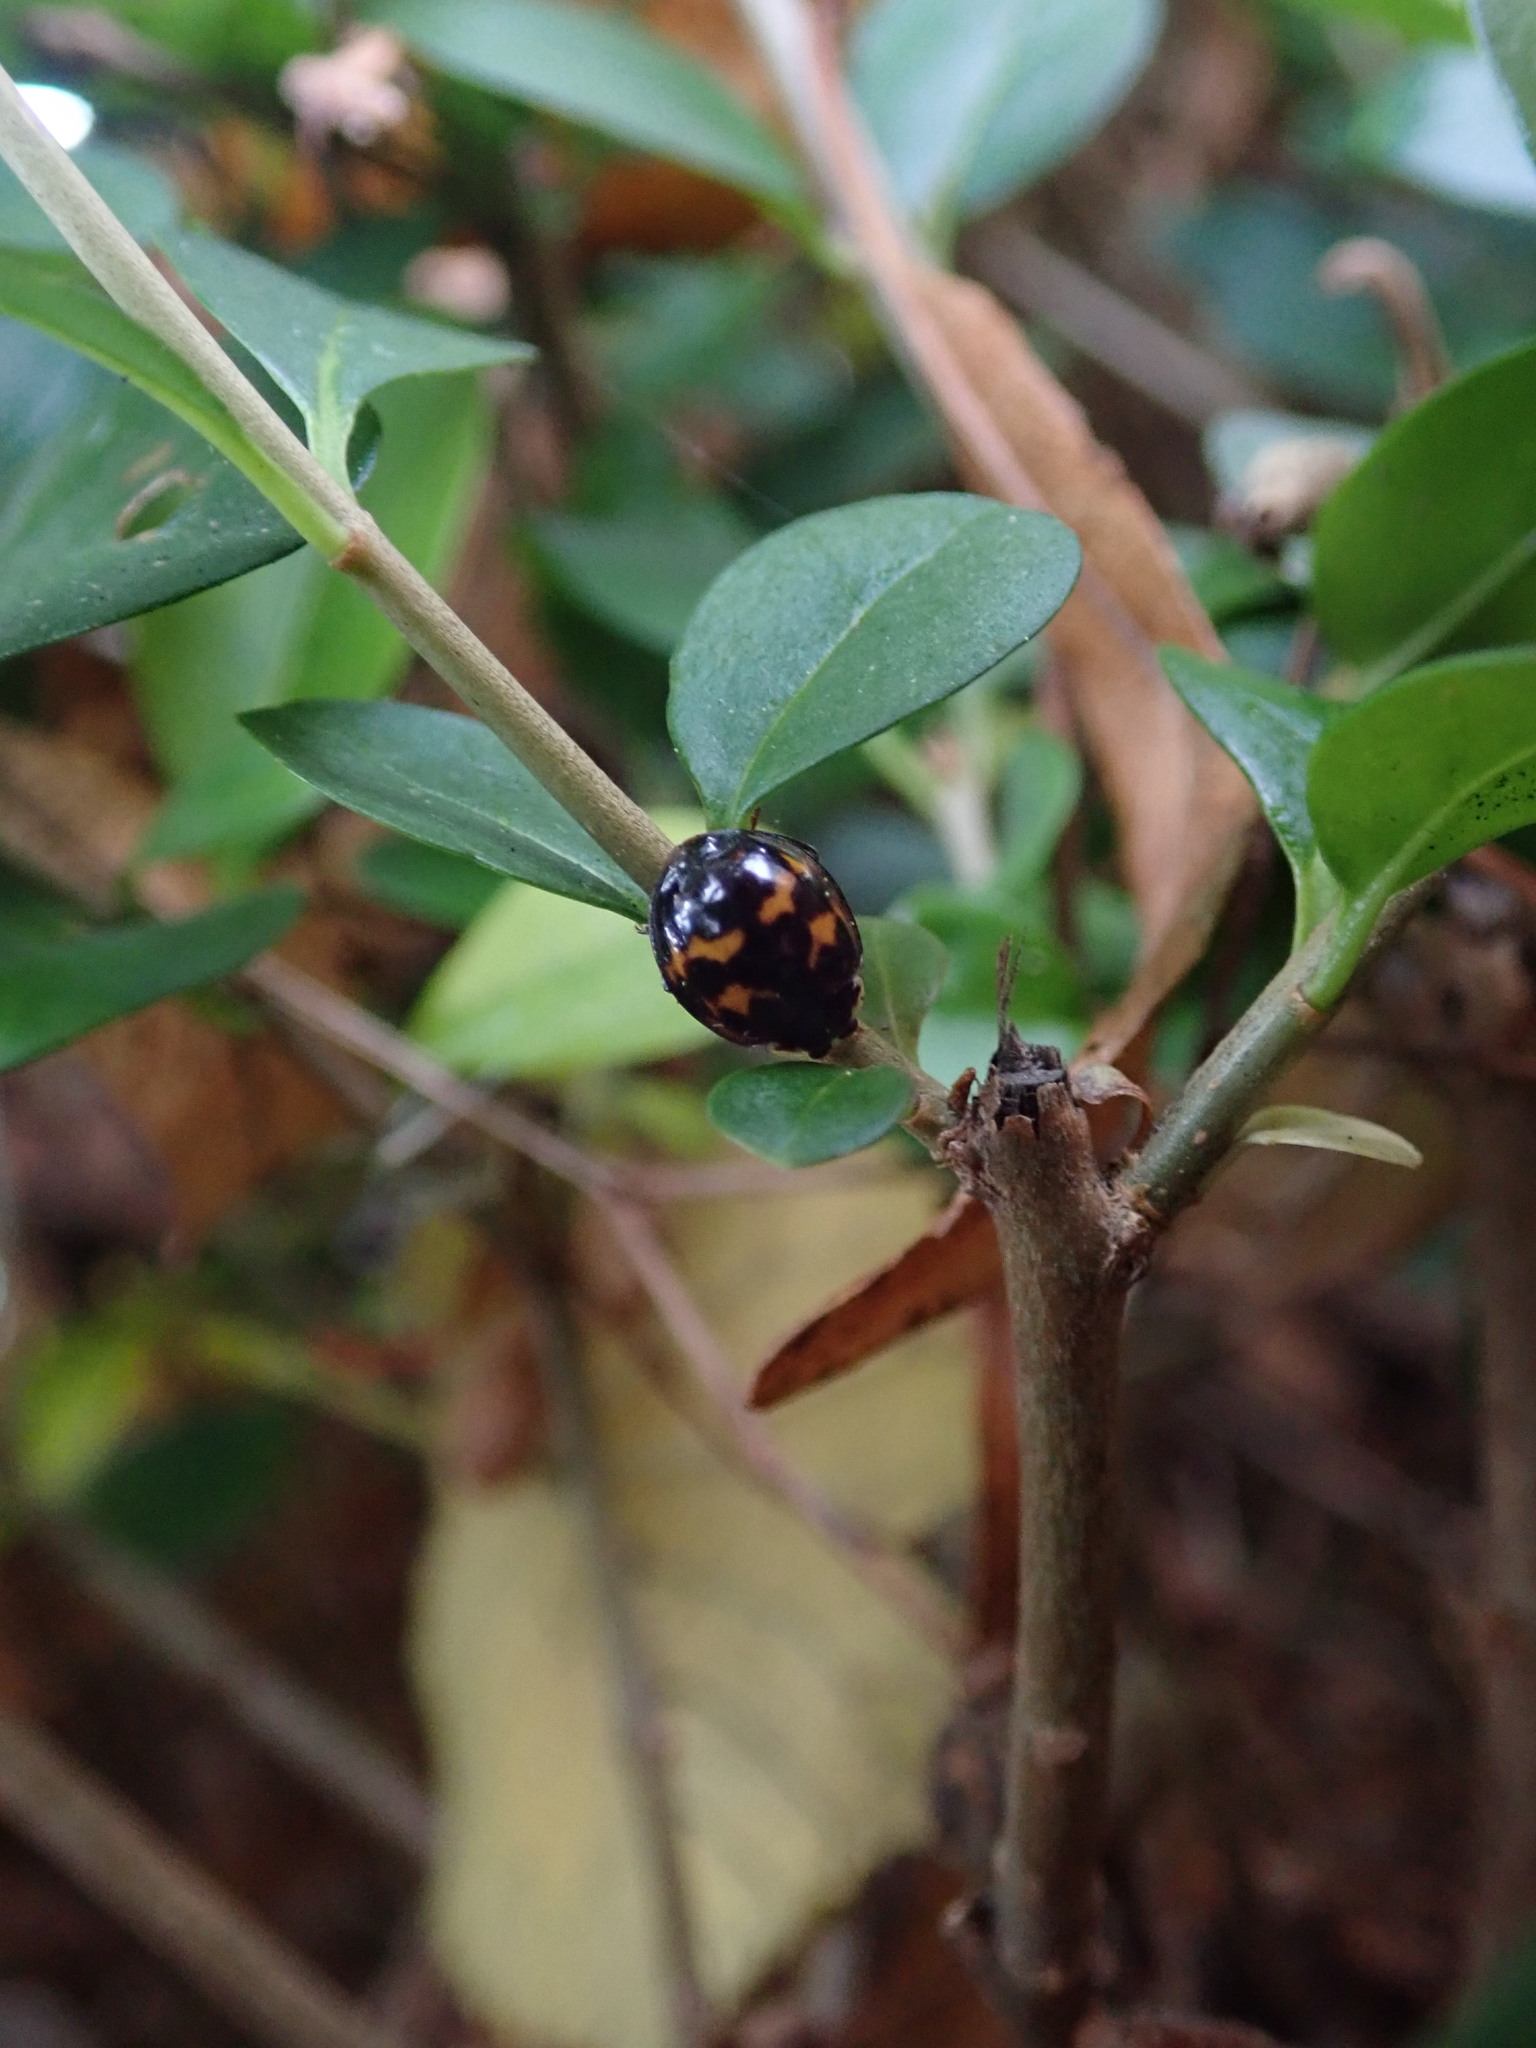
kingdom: Animalia
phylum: Arthropoda
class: Insecta
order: Coleoptera
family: Coccinellidae
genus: Harmonia
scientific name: Harmonia axyridis
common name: Harlequin ladybird
